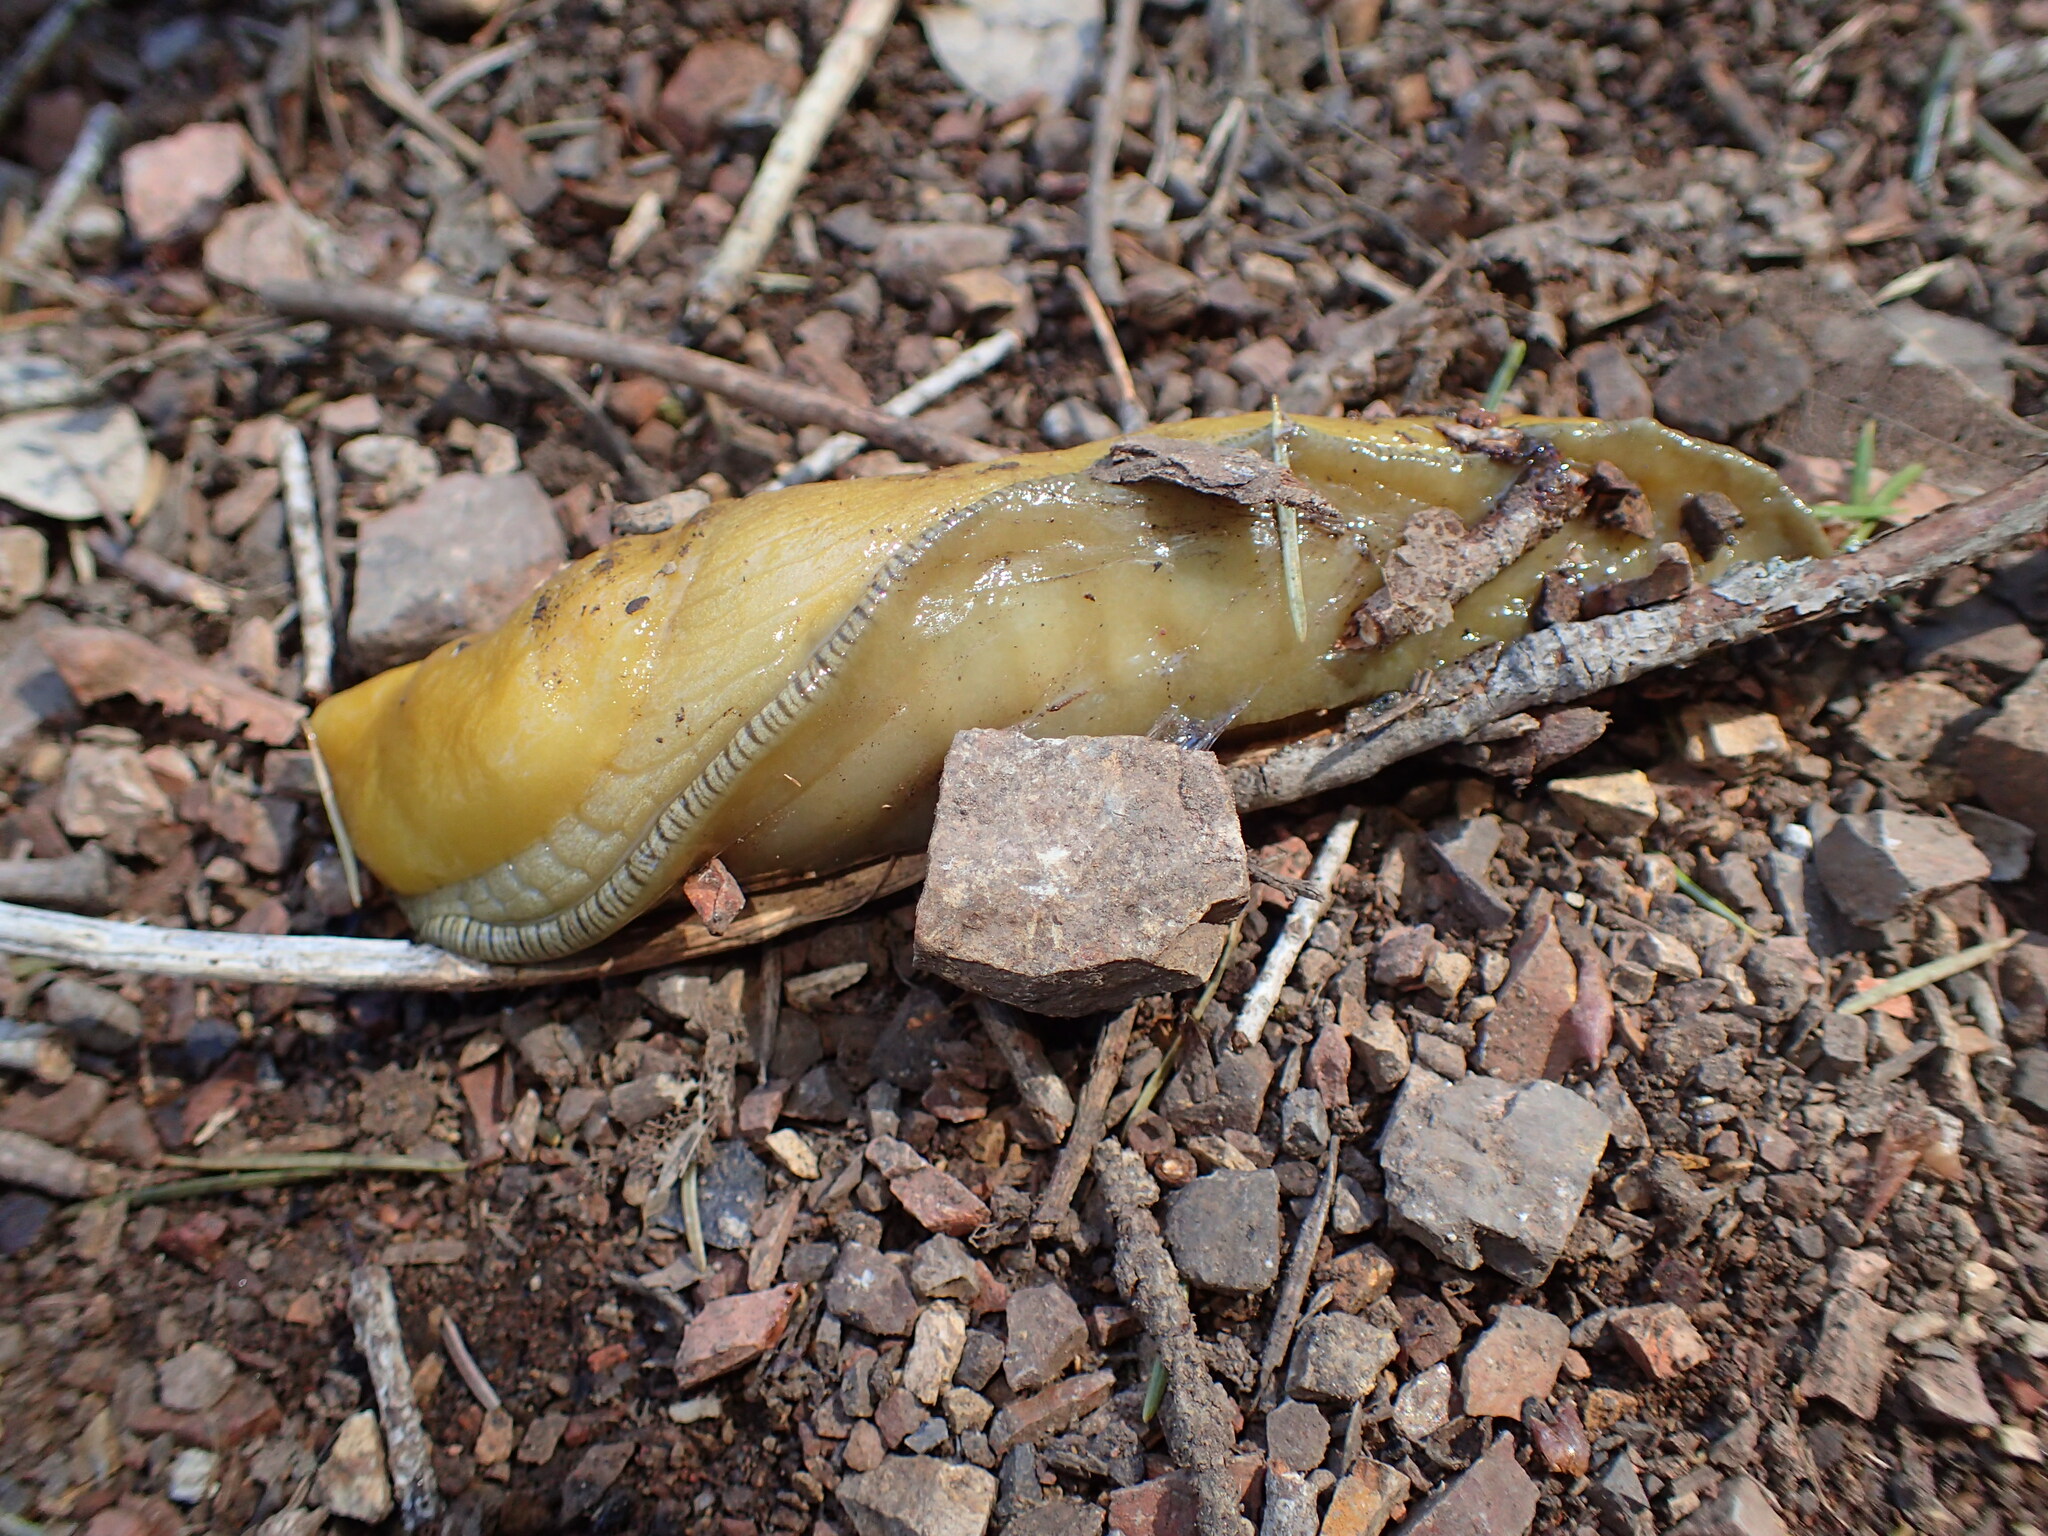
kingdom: Animalia
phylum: Mollusca
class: Gastropoda
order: Stylommatophora
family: Ariolimacidae
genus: Ariolimax
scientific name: Ariolimax stramineus
